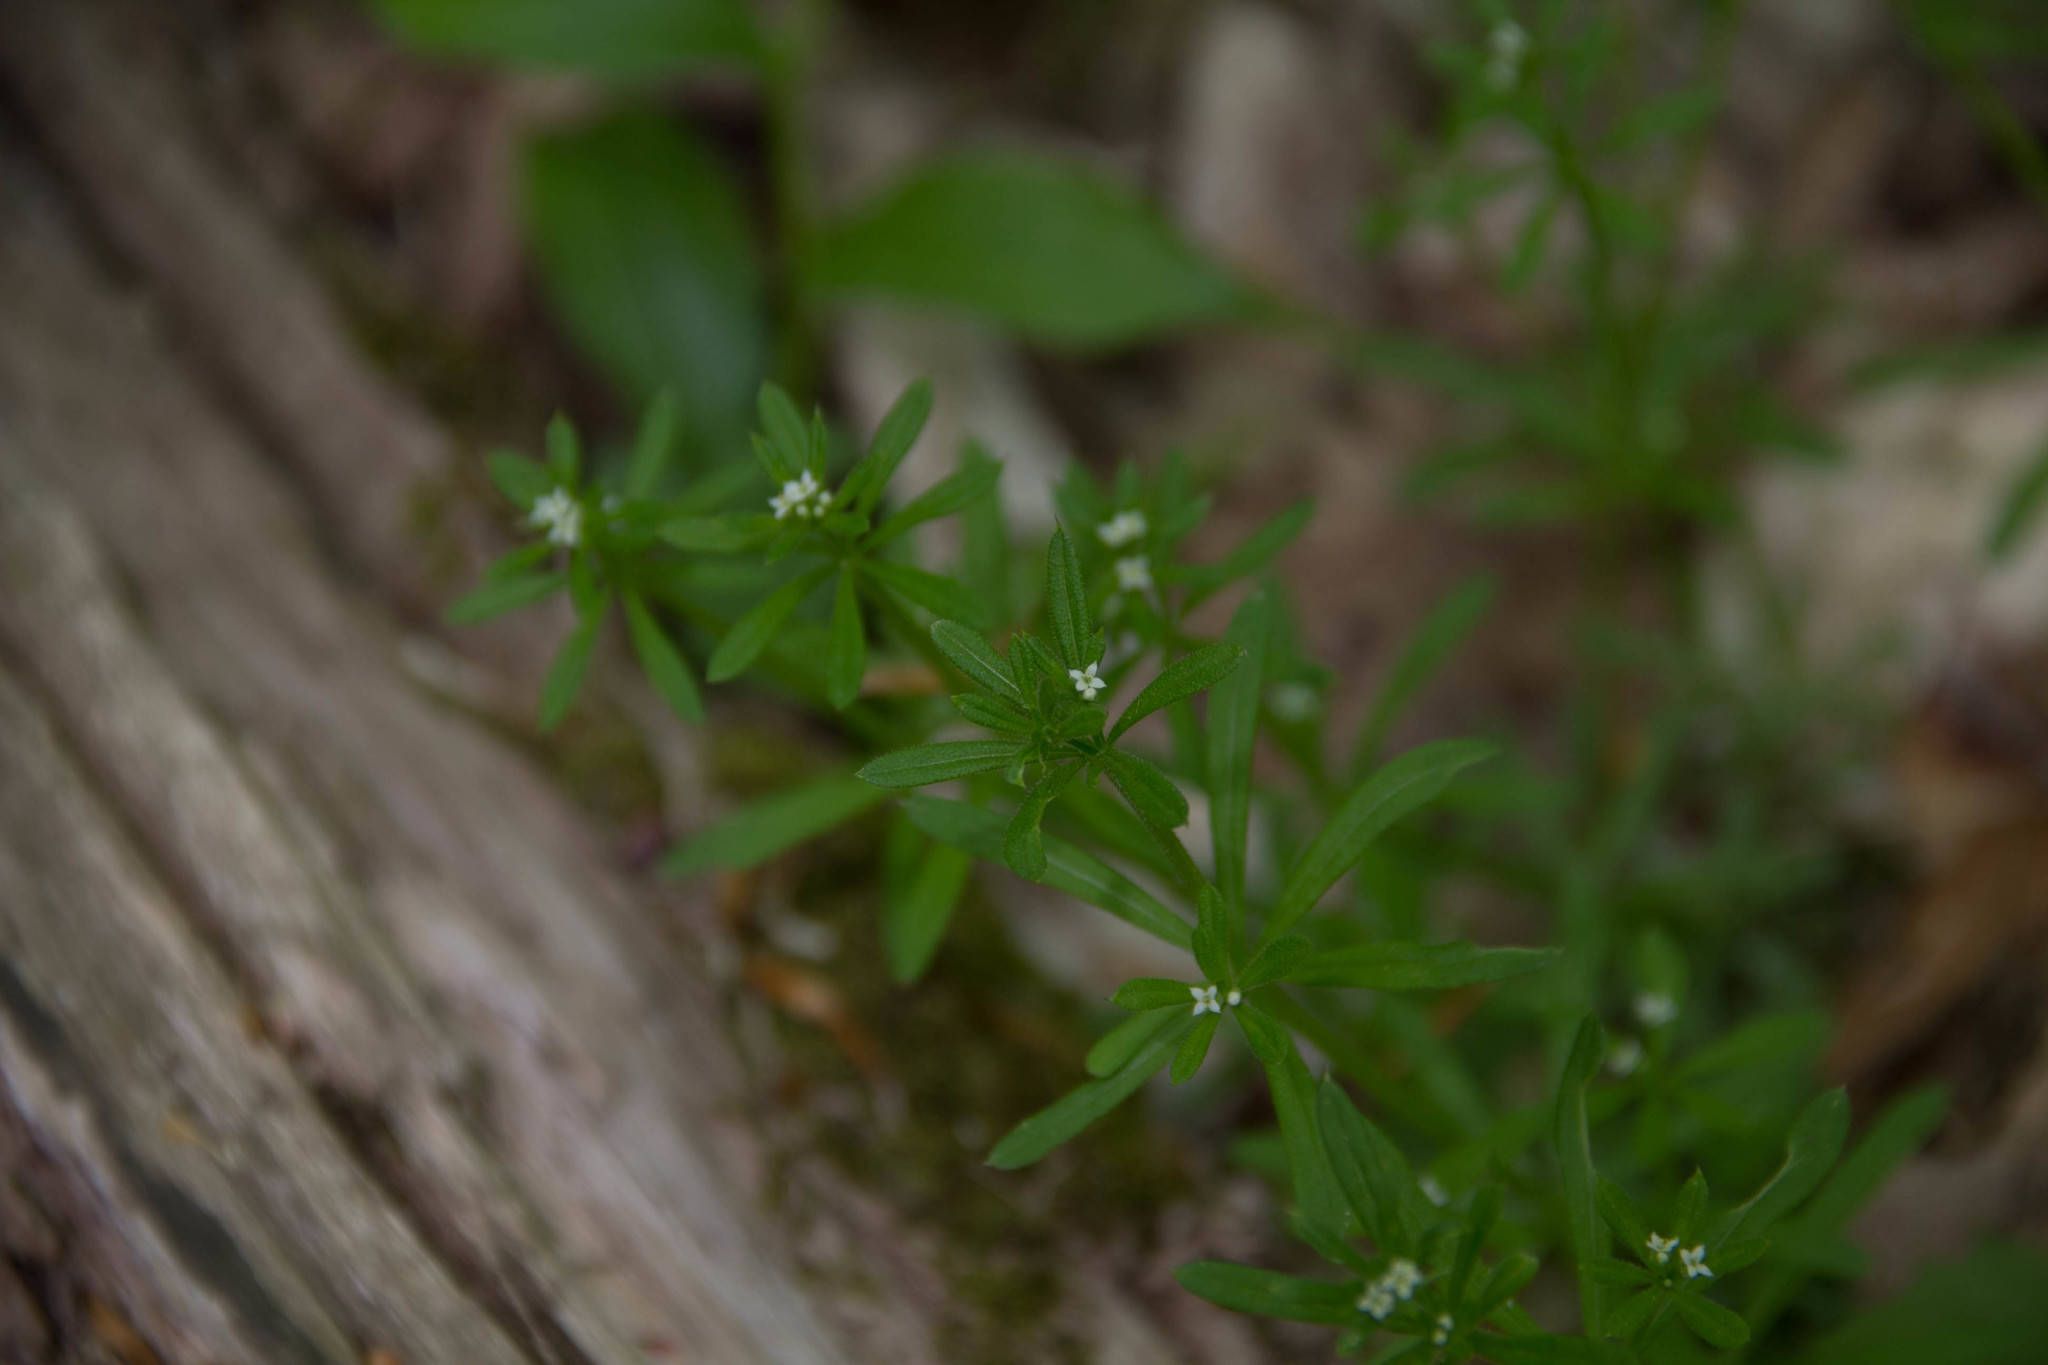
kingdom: Plantae
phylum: Tracheophyta
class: Magnoliopsida
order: Gentianales
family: Rubiaceae
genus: Galium
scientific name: Galium aparine
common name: Cleavers
